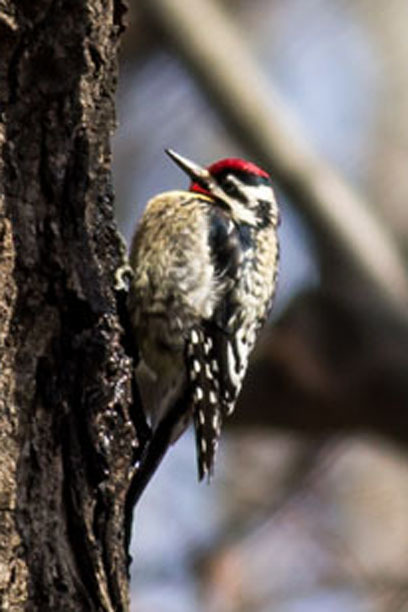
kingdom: Animalia
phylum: Chordata
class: Aves
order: Piciformes
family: Picidae
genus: Sphyrapicus
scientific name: Sphyrapicus varius
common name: Yellow-bellied sapsucker
